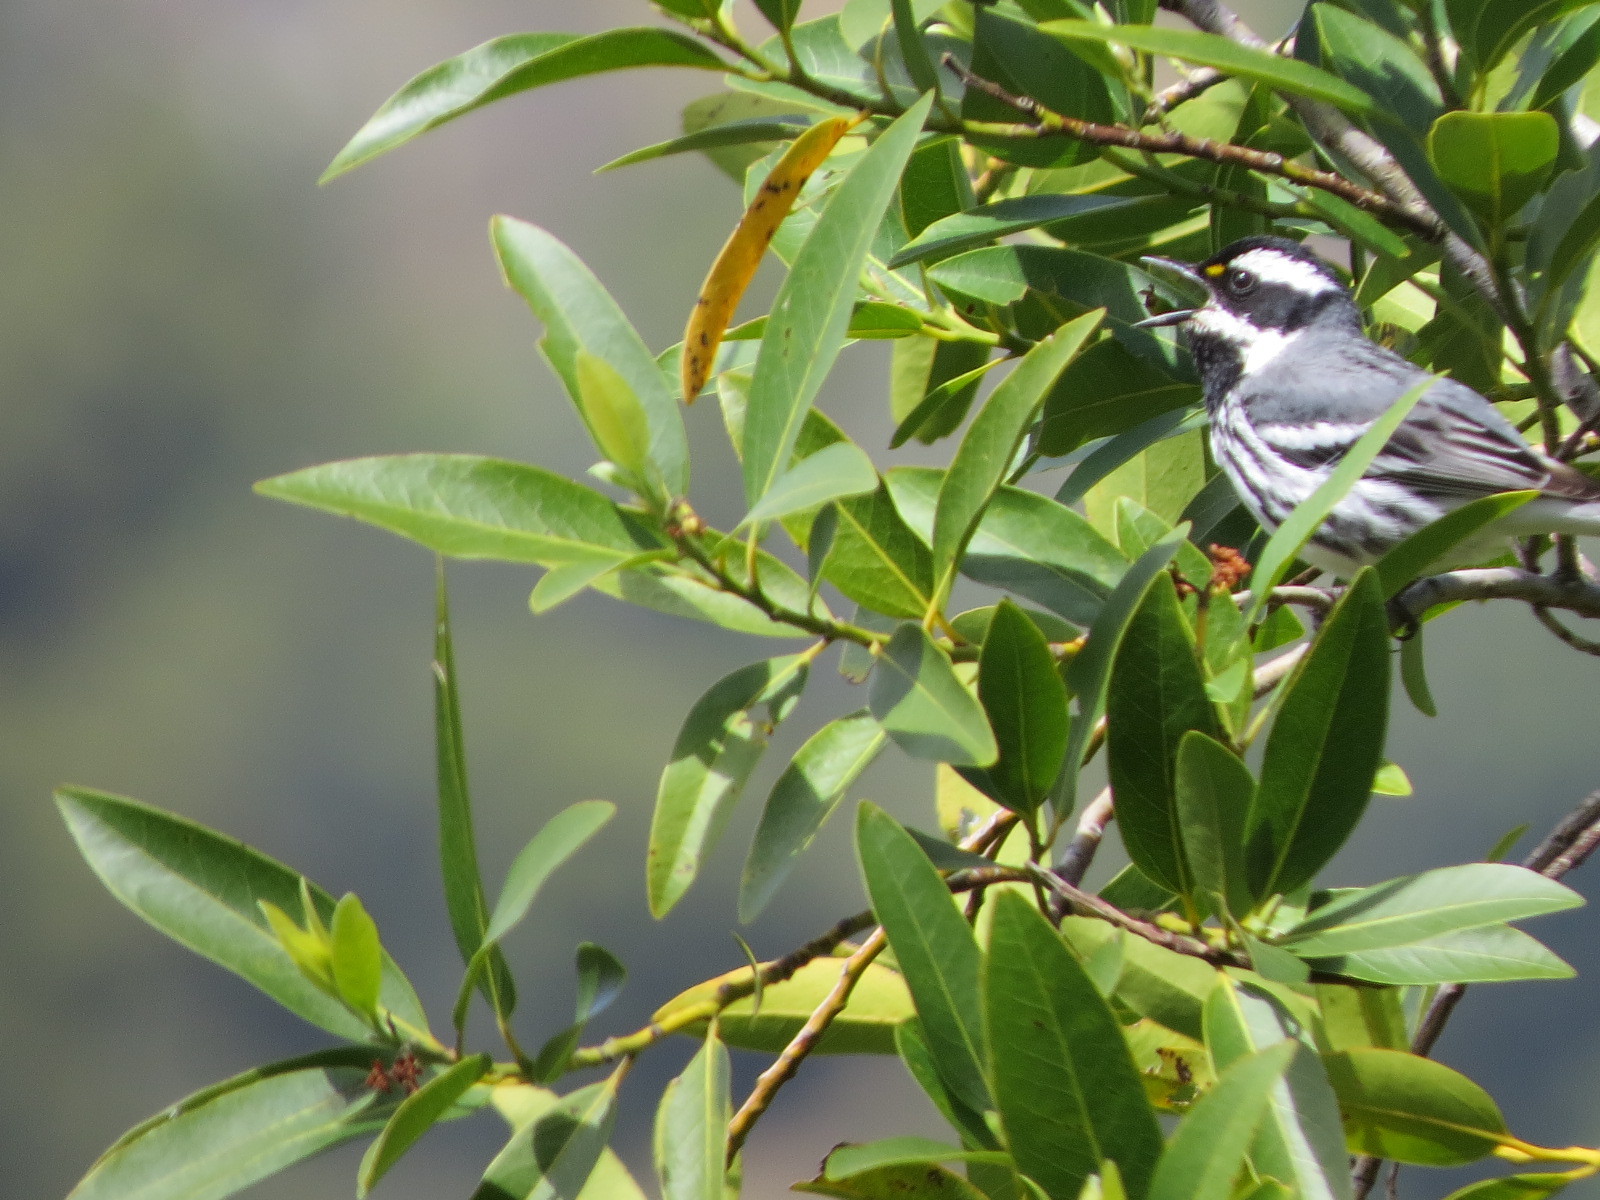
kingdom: Animalia
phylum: Chordata
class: Aves
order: Passeriformes
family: Parulidae
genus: Setophaga
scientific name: Setophaga nigrescens
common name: Black-throated gray warbler
